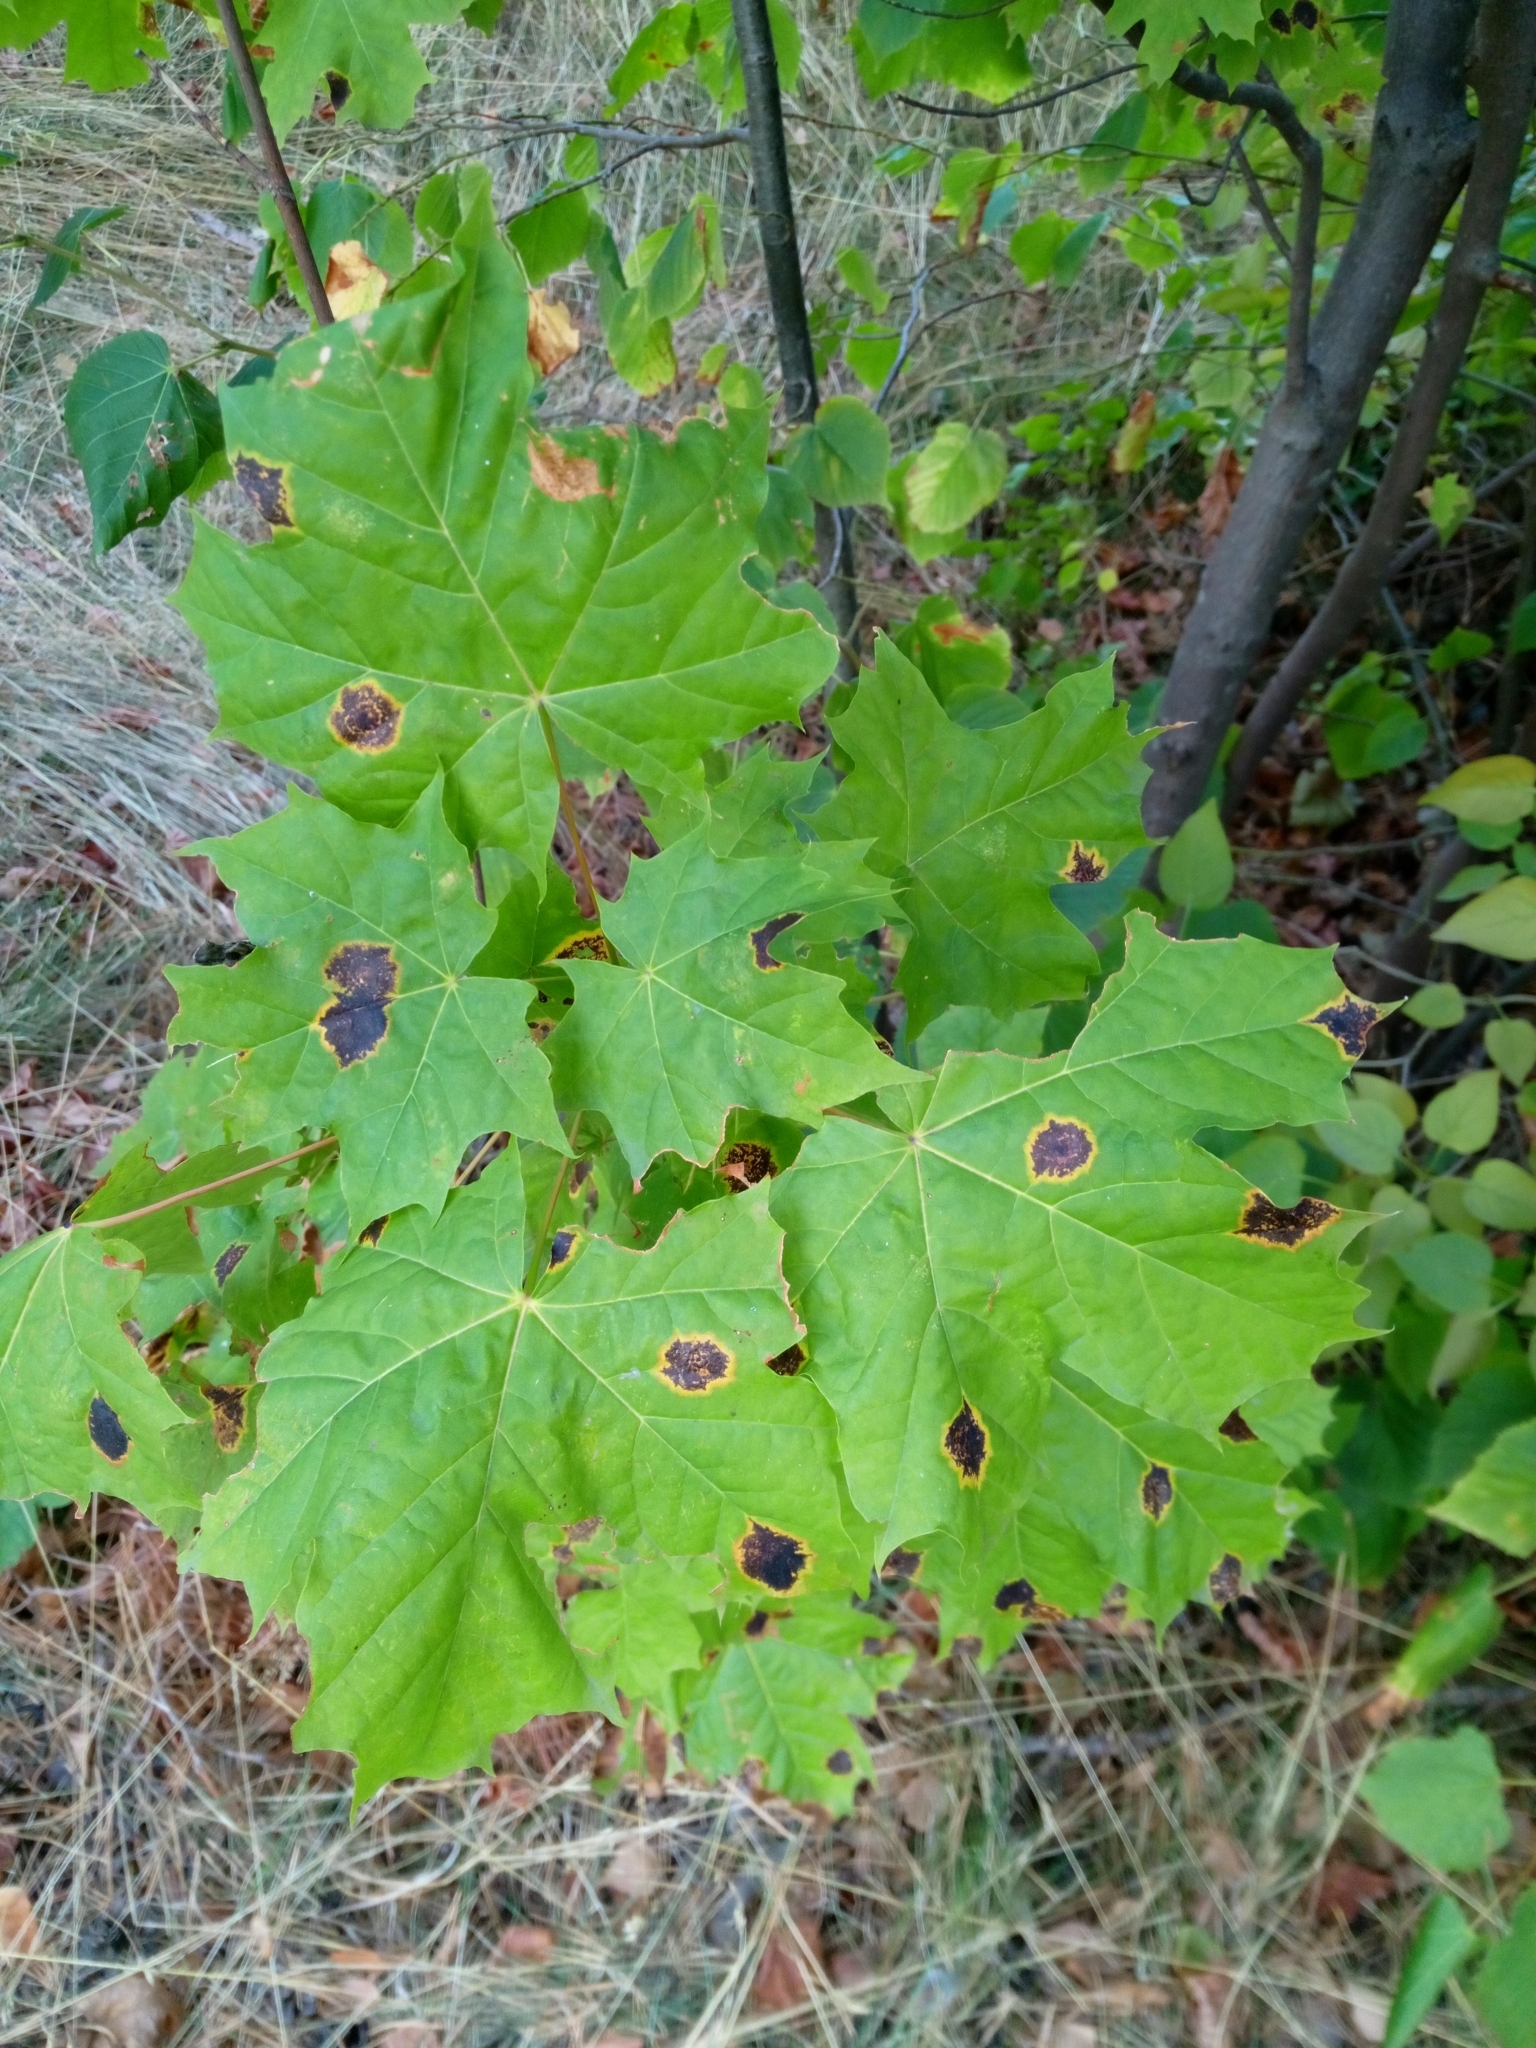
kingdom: Fungi
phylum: Ascomycota
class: Leotiomycetes
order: Rhytismatales
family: Rhytismataceae
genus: Rhytisma
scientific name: Rhytisma acerinum
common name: European tar spot
